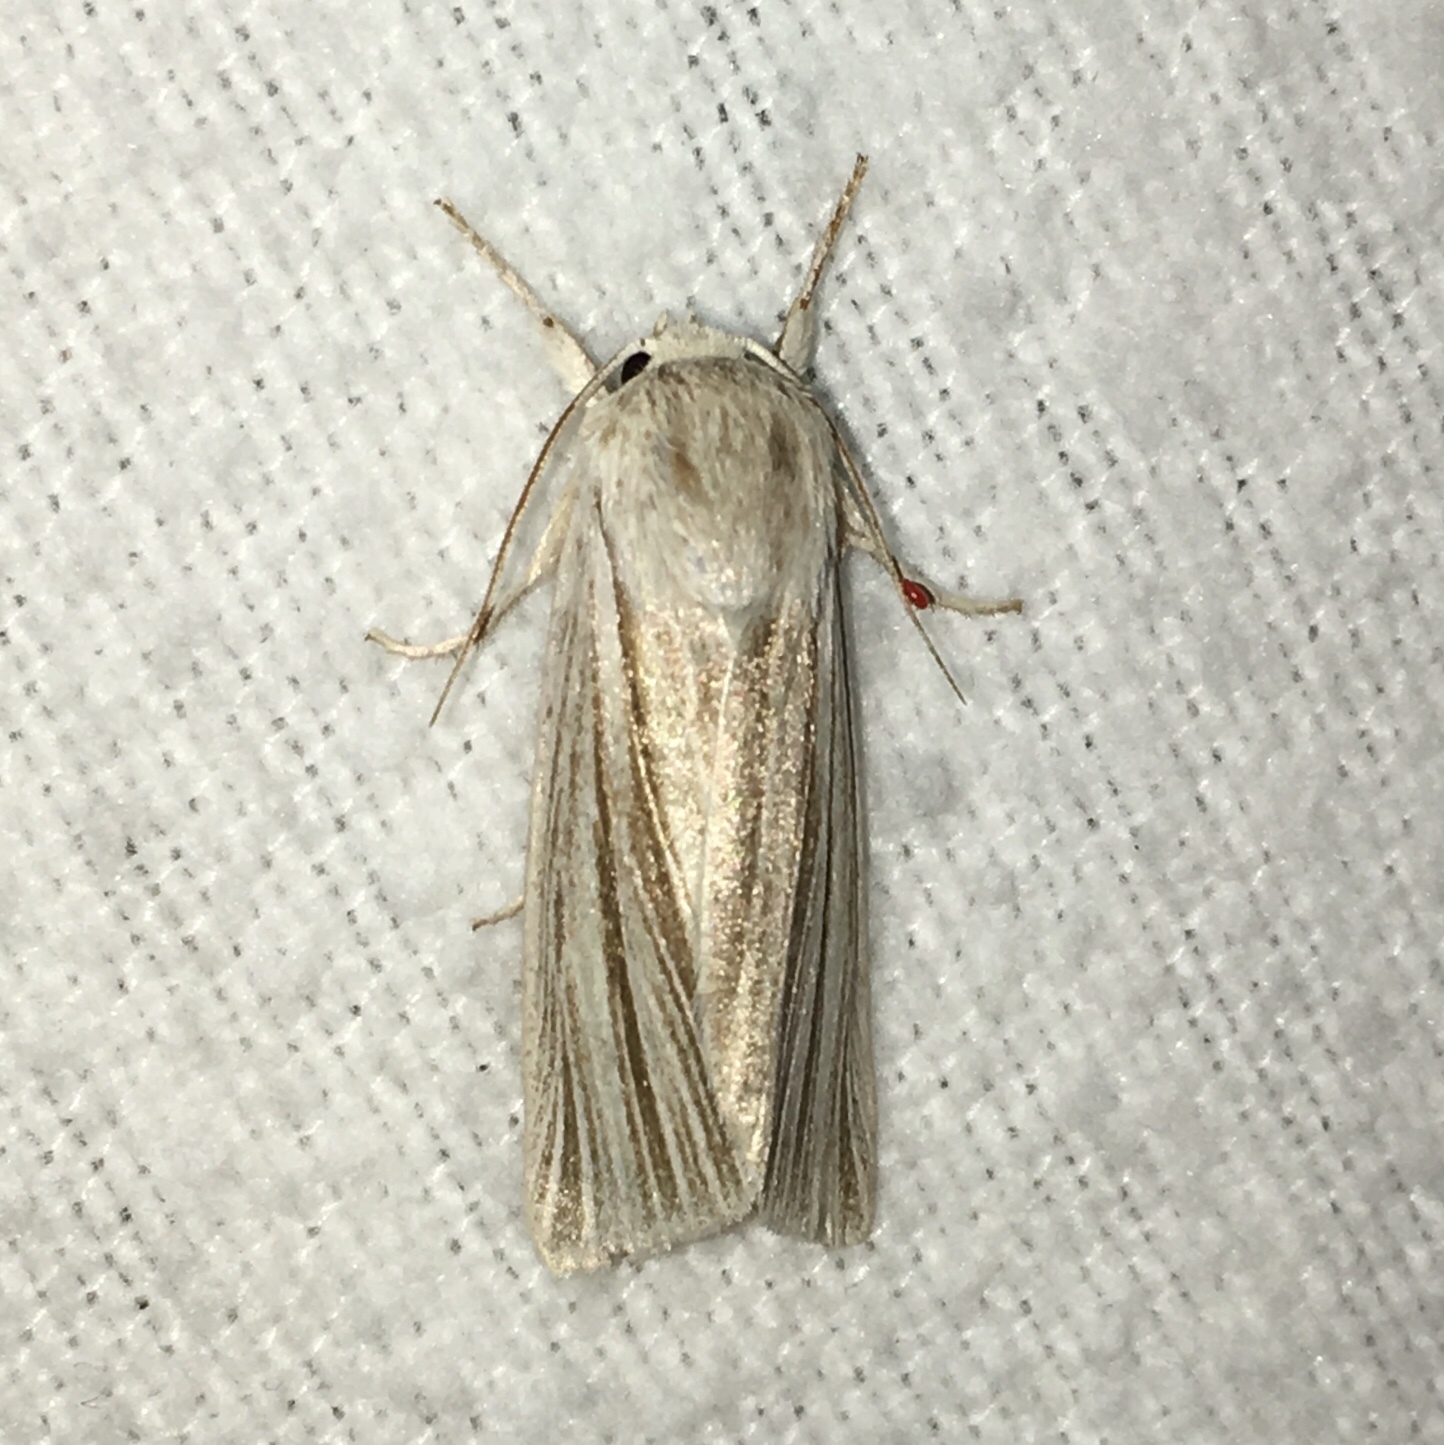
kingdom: Animalia
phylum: Arthropoda
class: Insecta
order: Lepidoptera
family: Noctuidae
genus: Acronicta
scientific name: Acronicta insularis
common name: Henry's marsh moth
